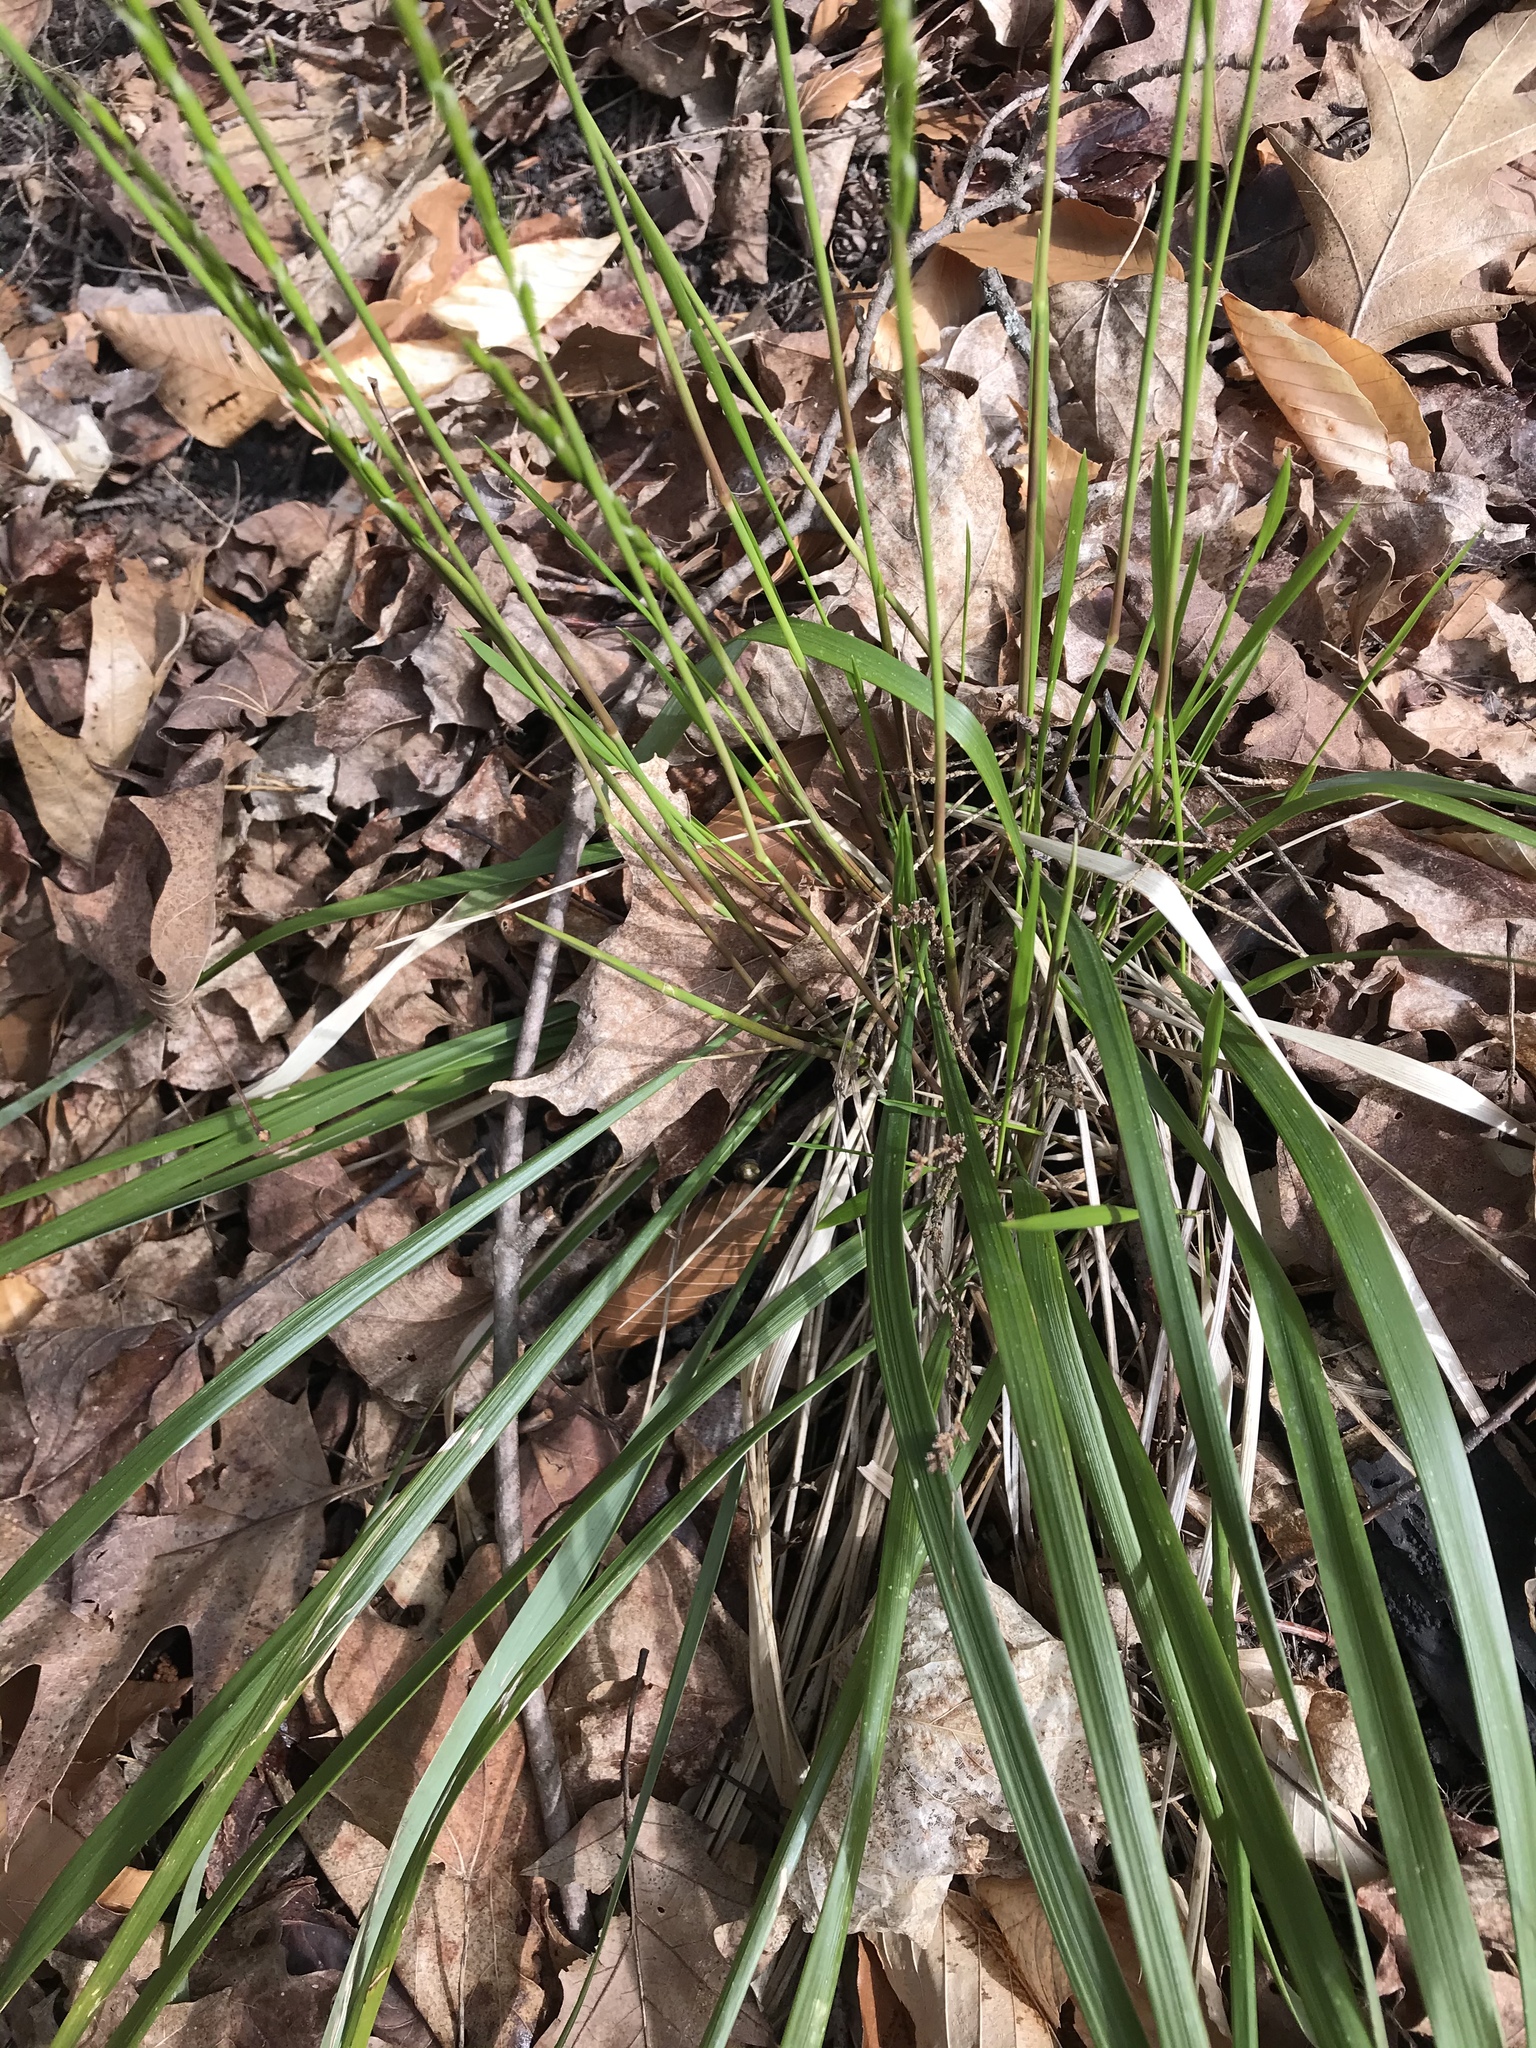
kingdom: Plantae
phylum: Tracheophyta
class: Liliopsida
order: Poales
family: Poaceae
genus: Oryzopsis
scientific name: Oryzopsis asperifolia
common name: Rough-leaved mountain rice
